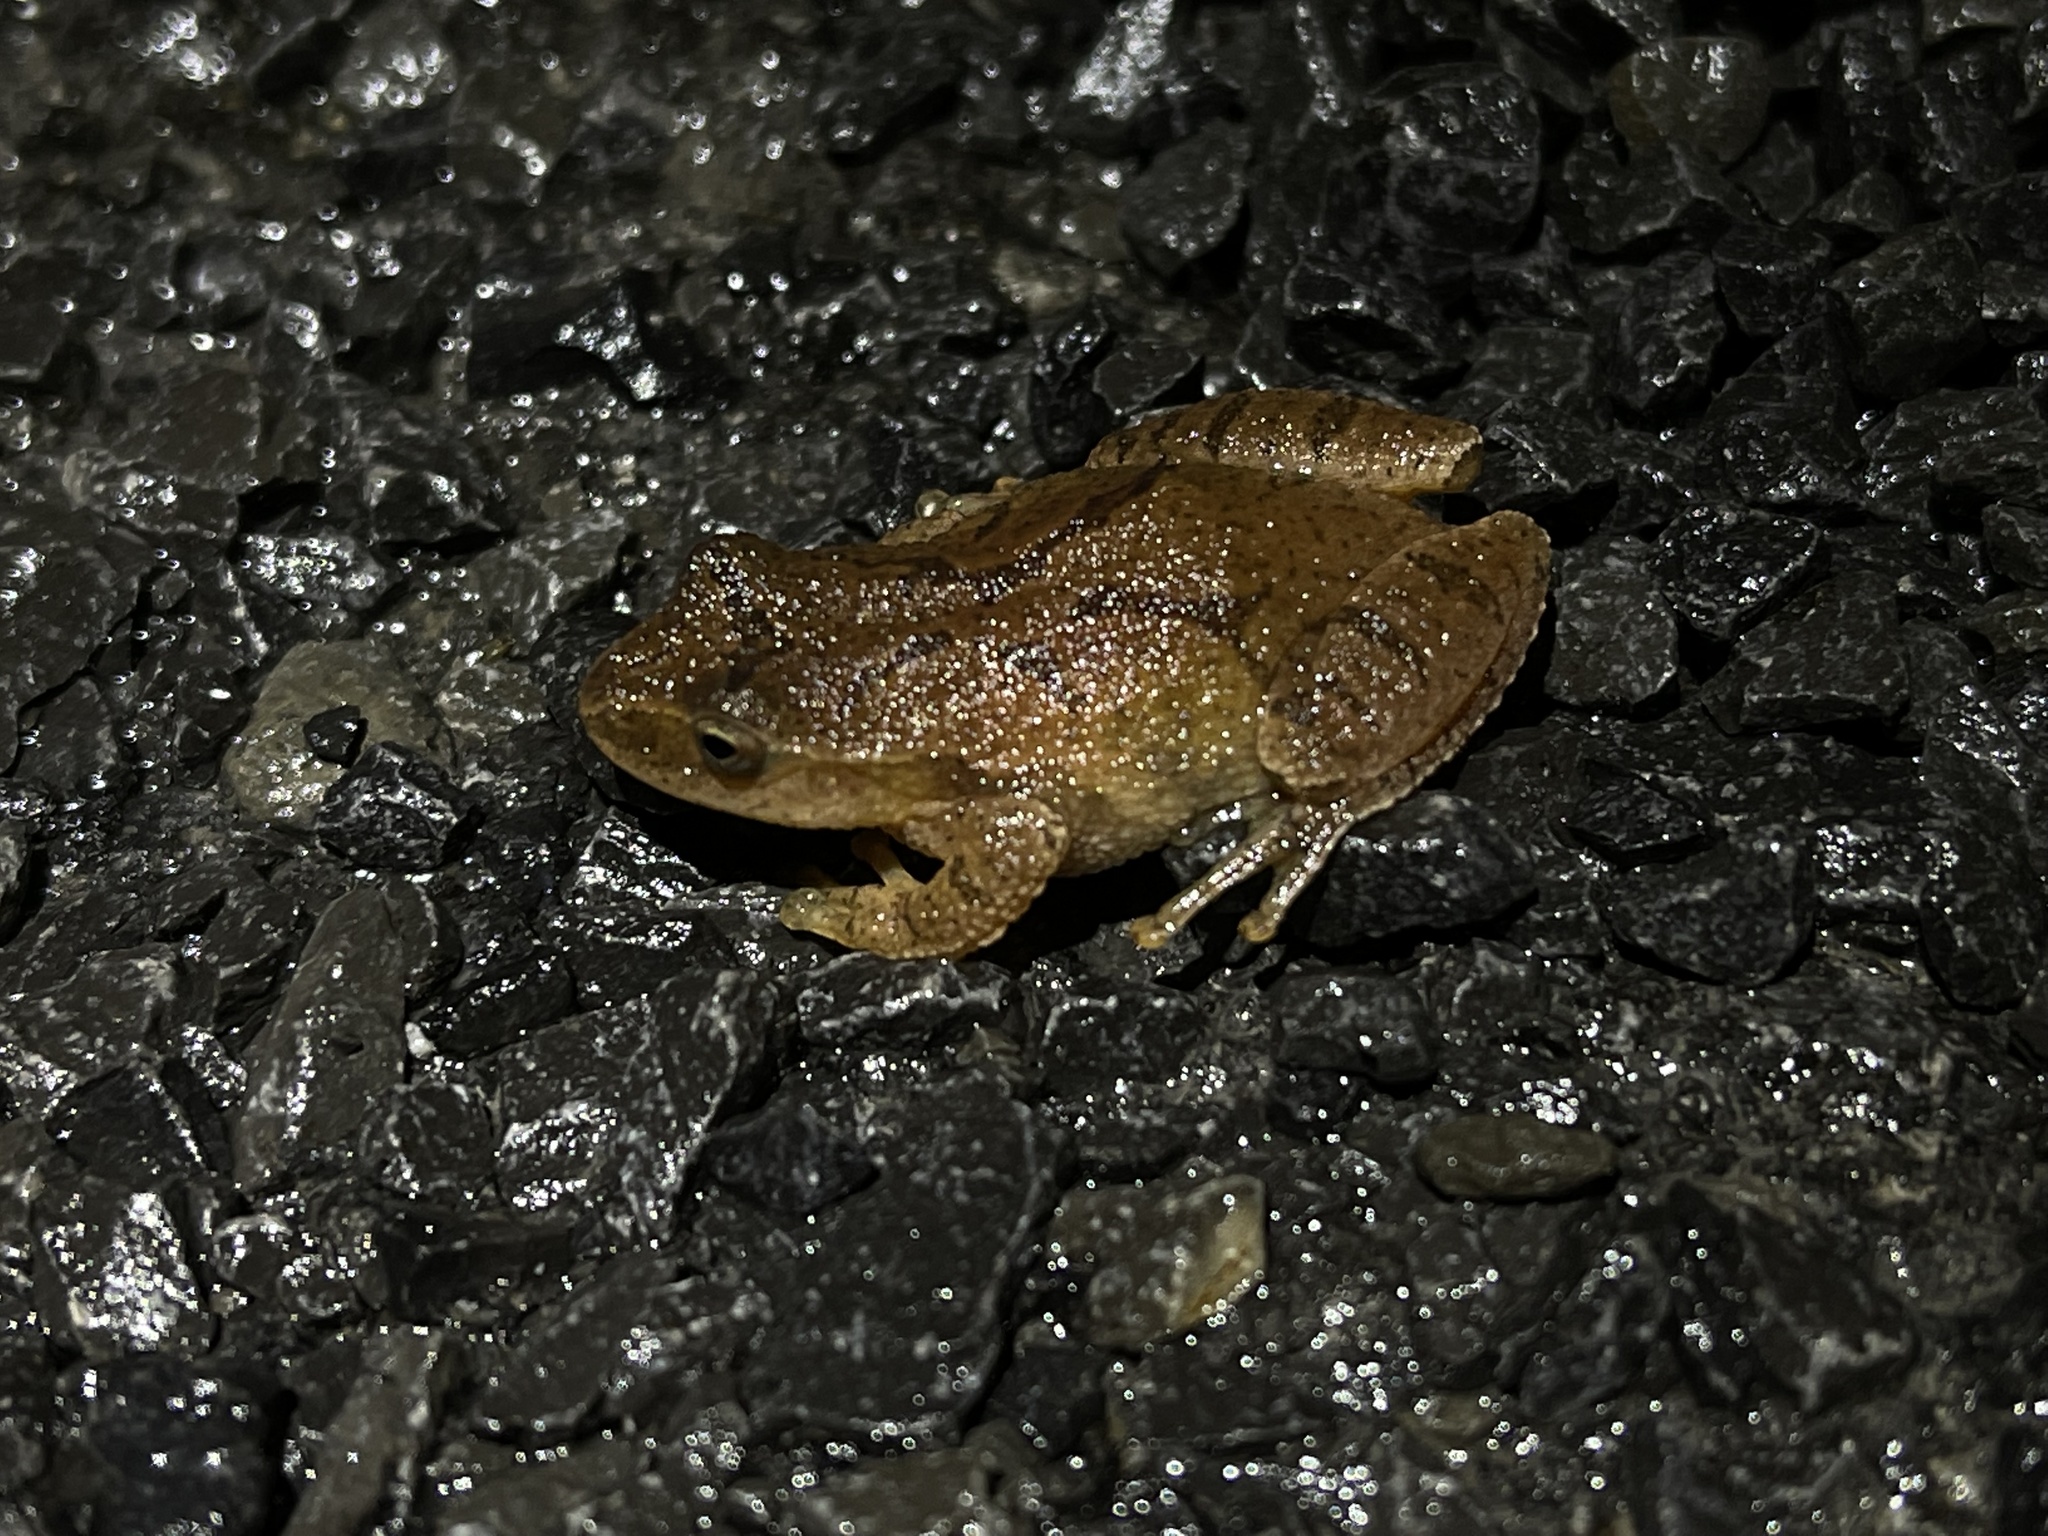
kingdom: Animalia
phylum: Chordata
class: Amphibia
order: Anura
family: Hylidae
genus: Pseudacris
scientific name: Pseudacris crucifer
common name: Spring peeper
